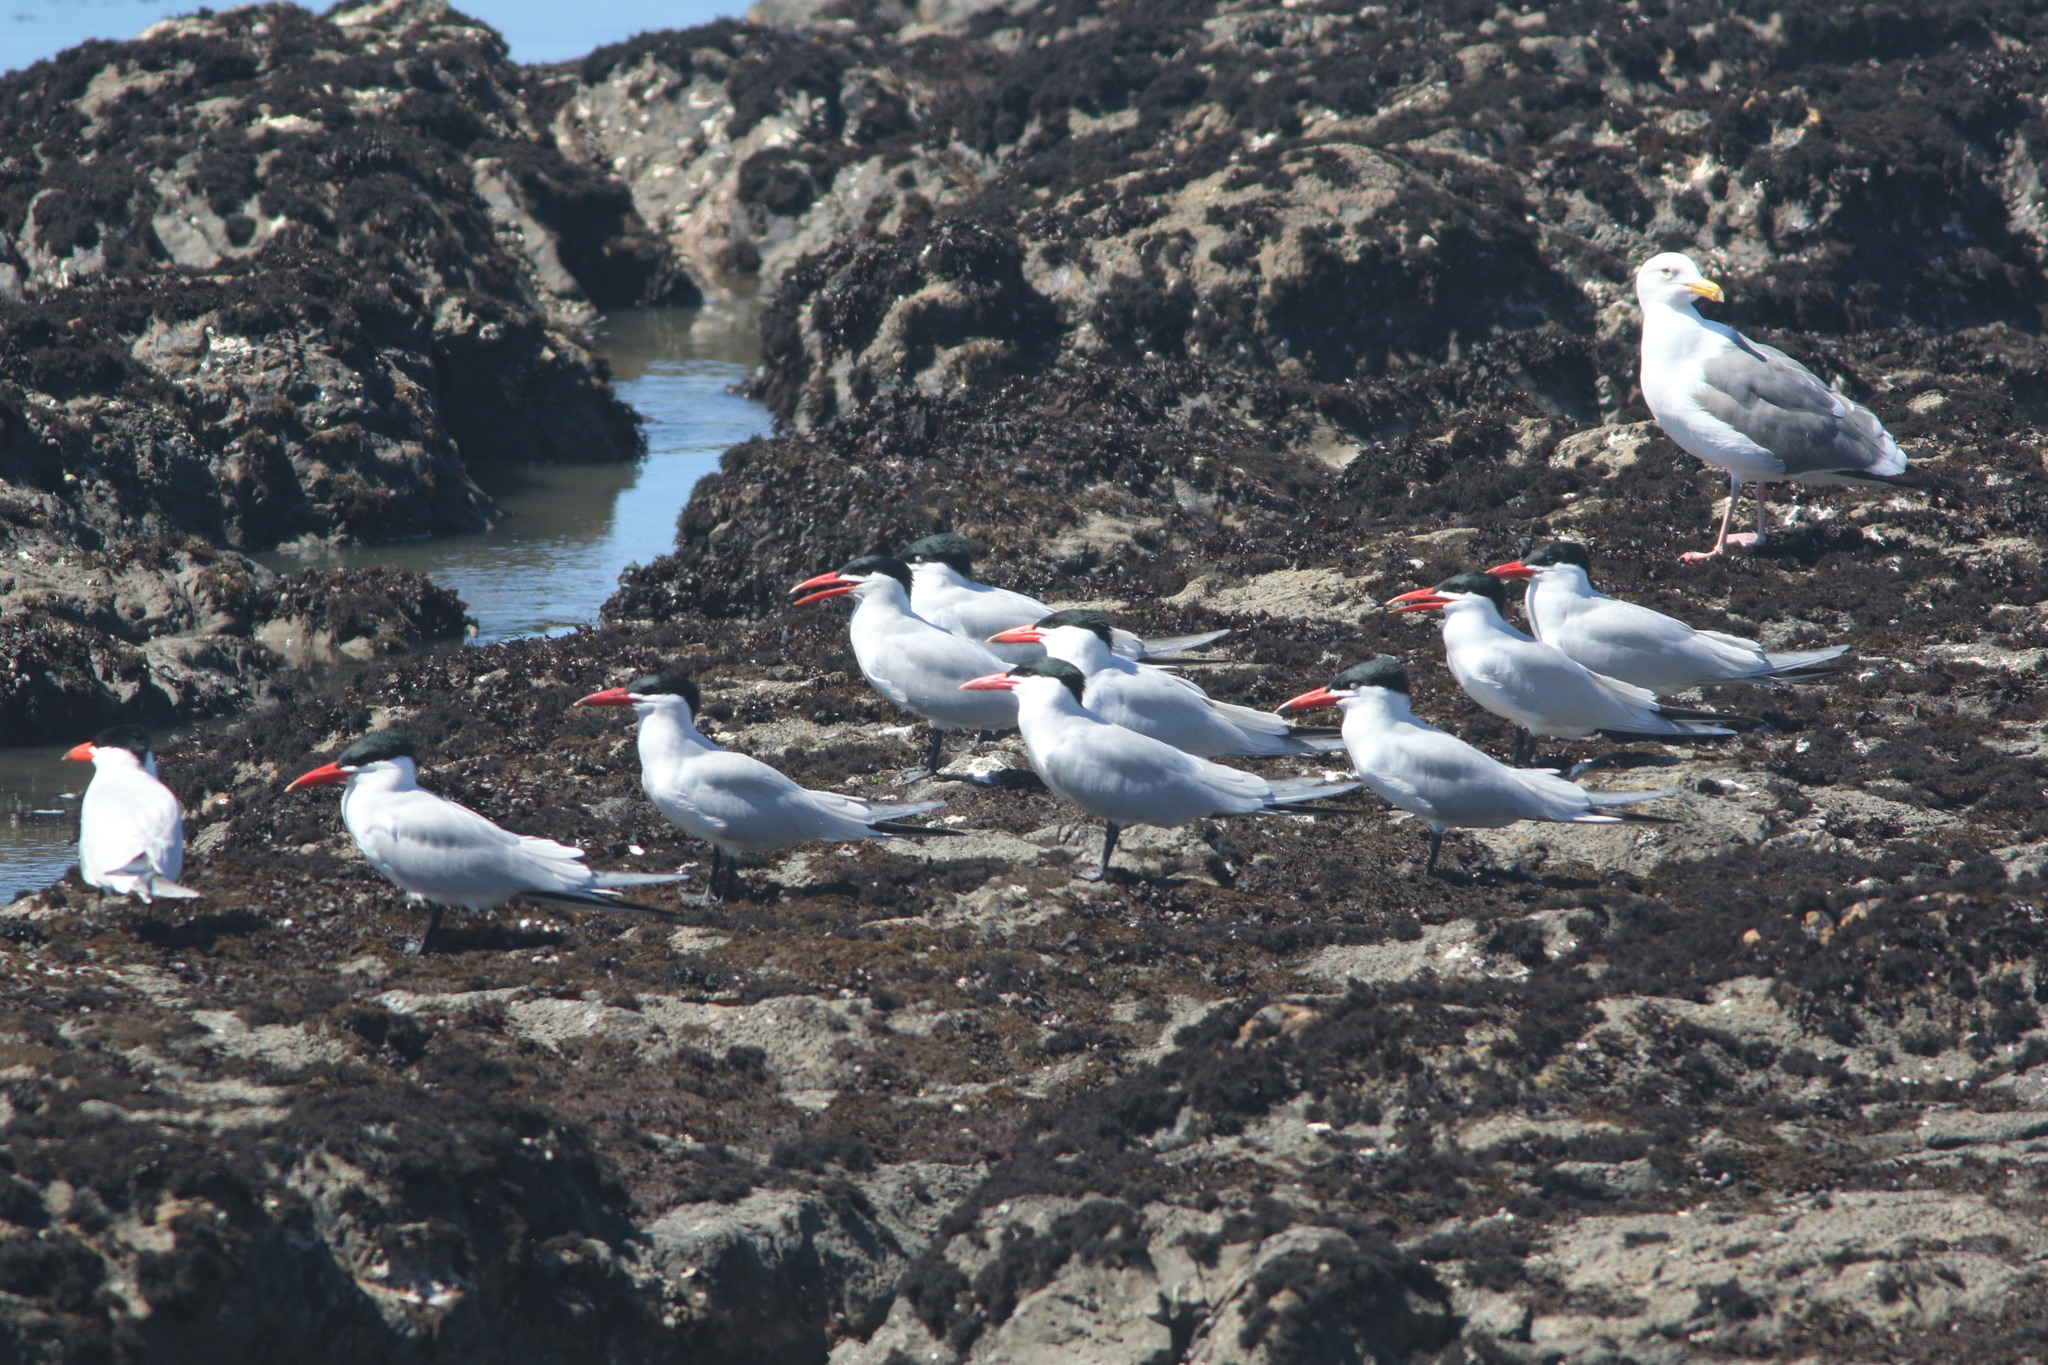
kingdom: Animalia
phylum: Chordata
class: Aves
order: Charadriiformes
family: Laridae
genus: Hydroprogne
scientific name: Hydroprogne caspia
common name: Caspian tern
